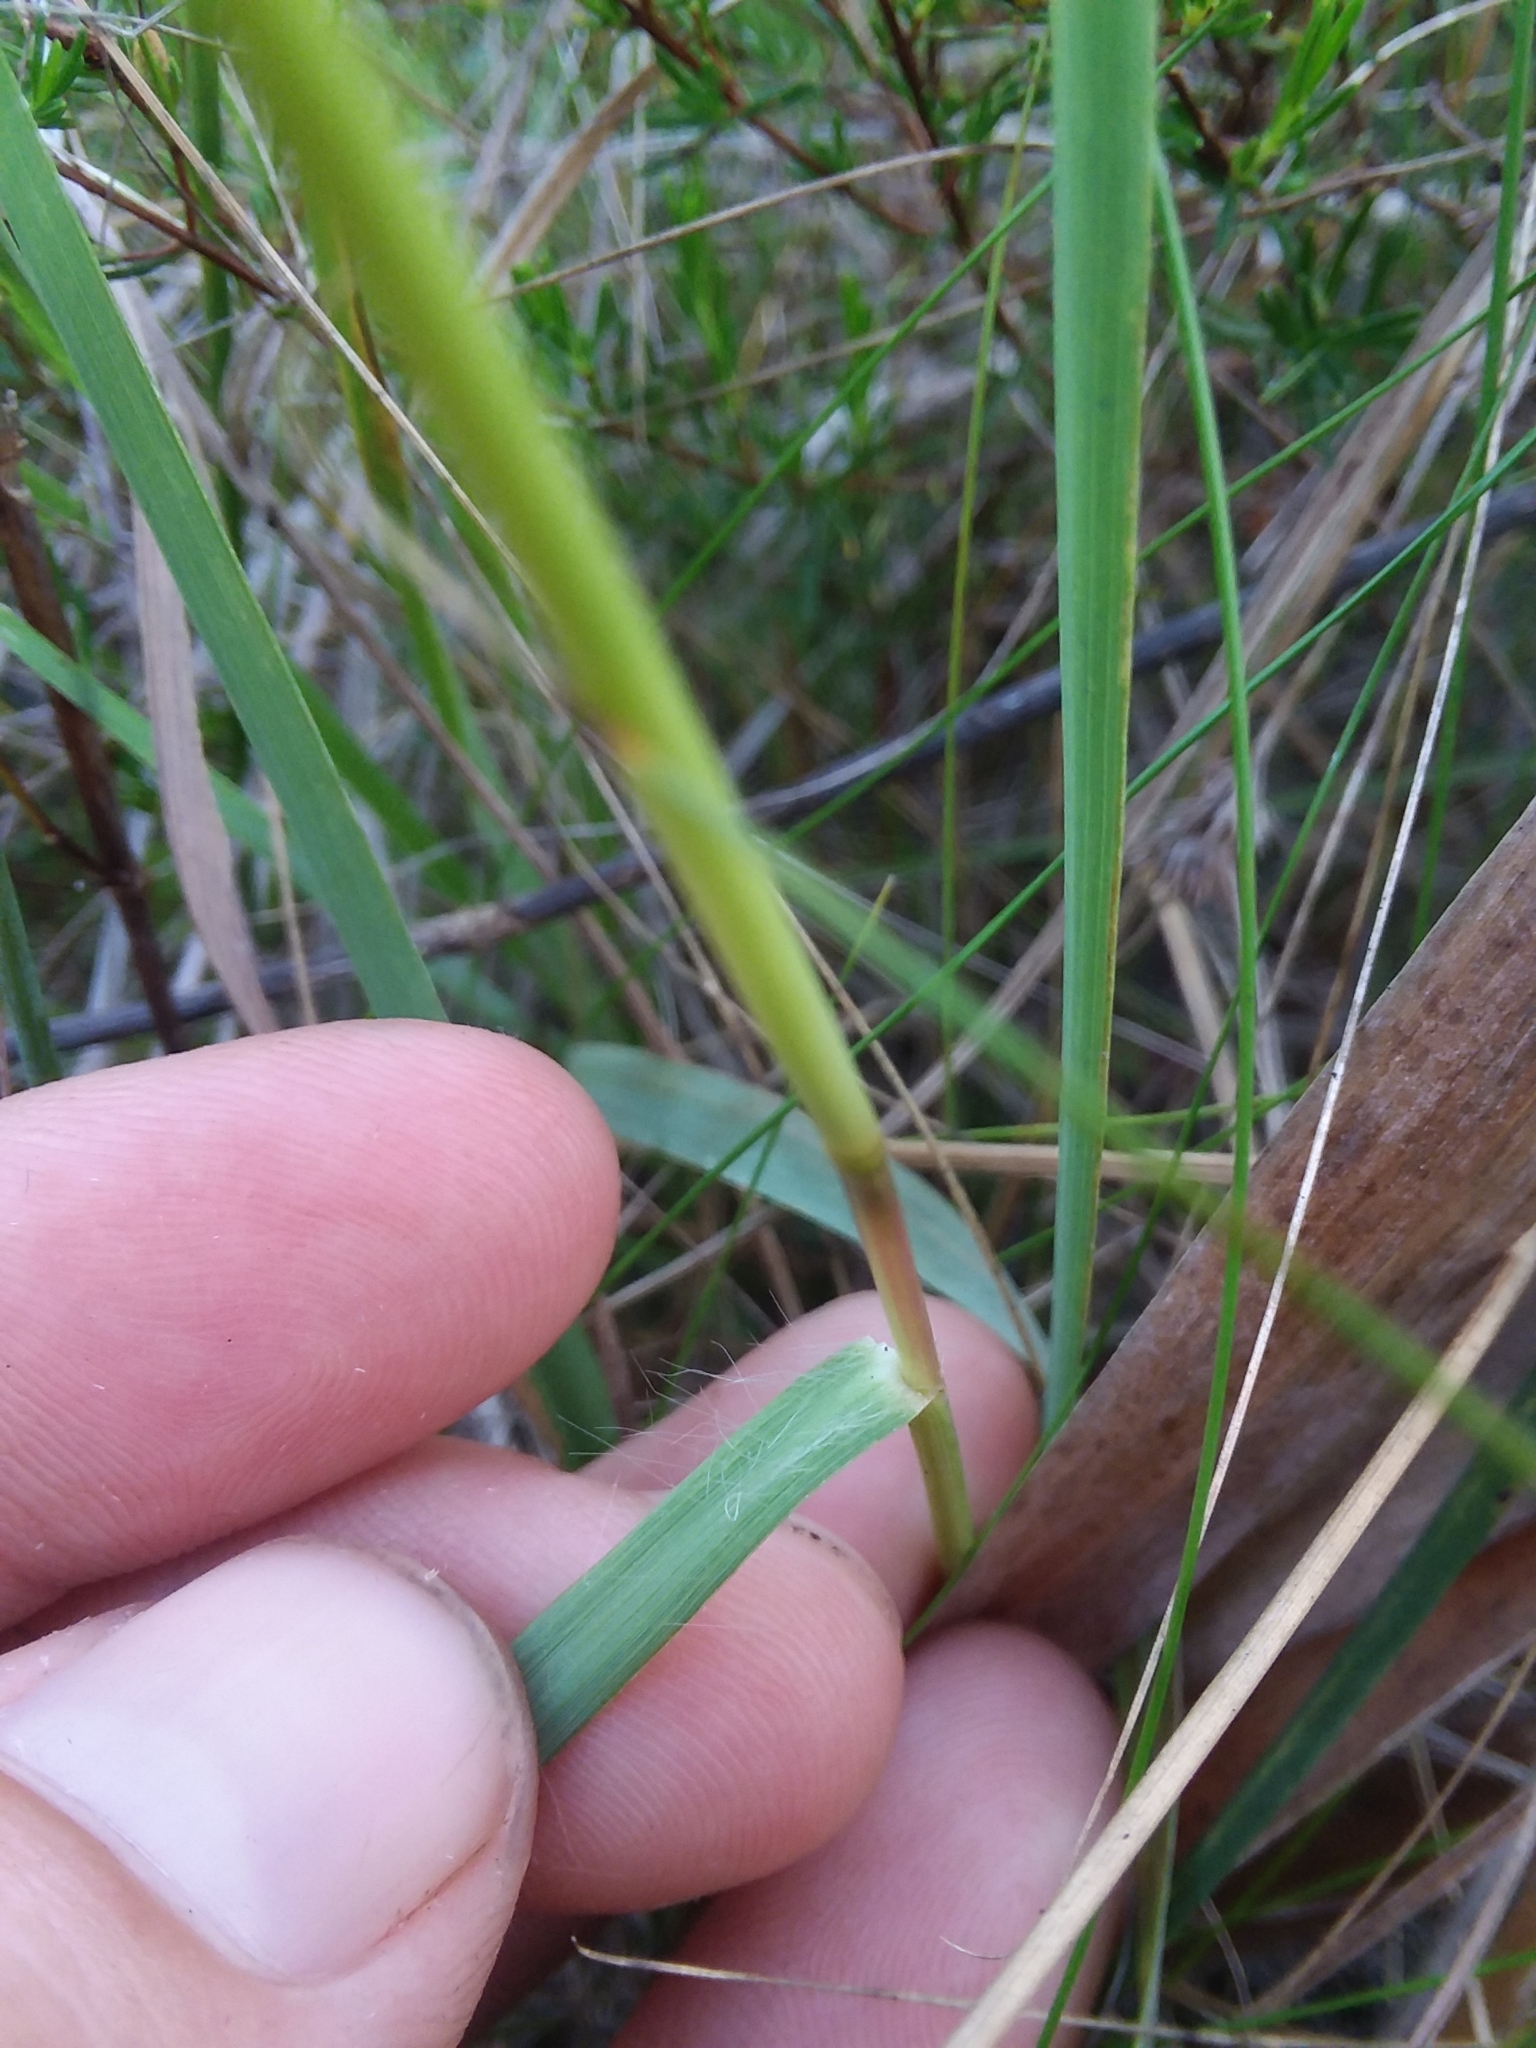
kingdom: Plantae
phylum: Tracheophyta
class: Liliopsida
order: Poales
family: Poaceae
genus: Eragrostis
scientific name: Eragrostis elliottii
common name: Elliott's love grass
